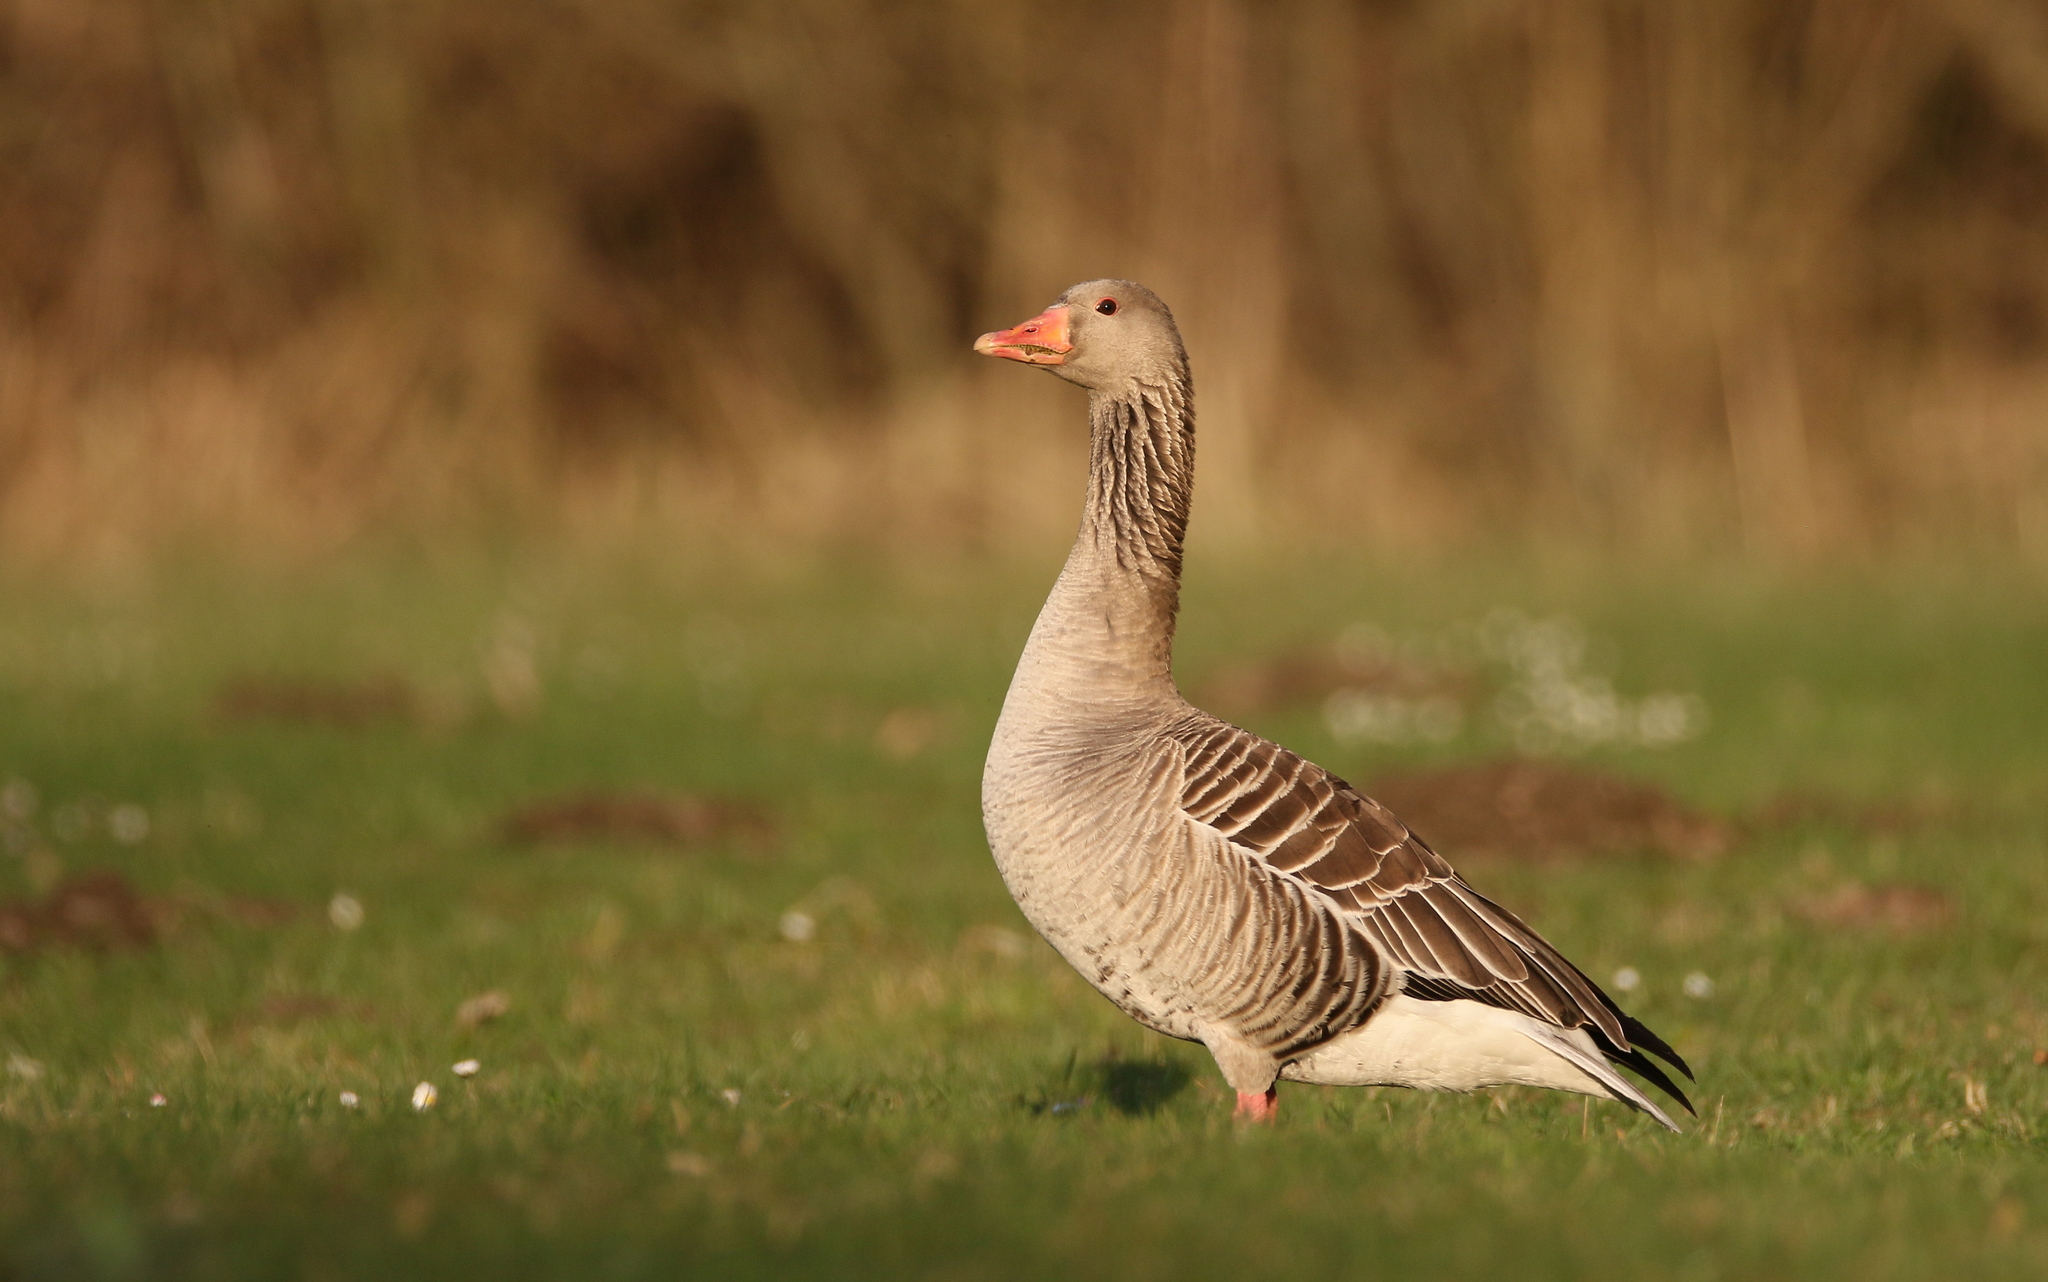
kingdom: Animalia
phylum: Chordata
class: Aves
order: Anseriformes
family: Anatidae
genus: Anser
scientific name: Anser anser
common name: Greylag goose
